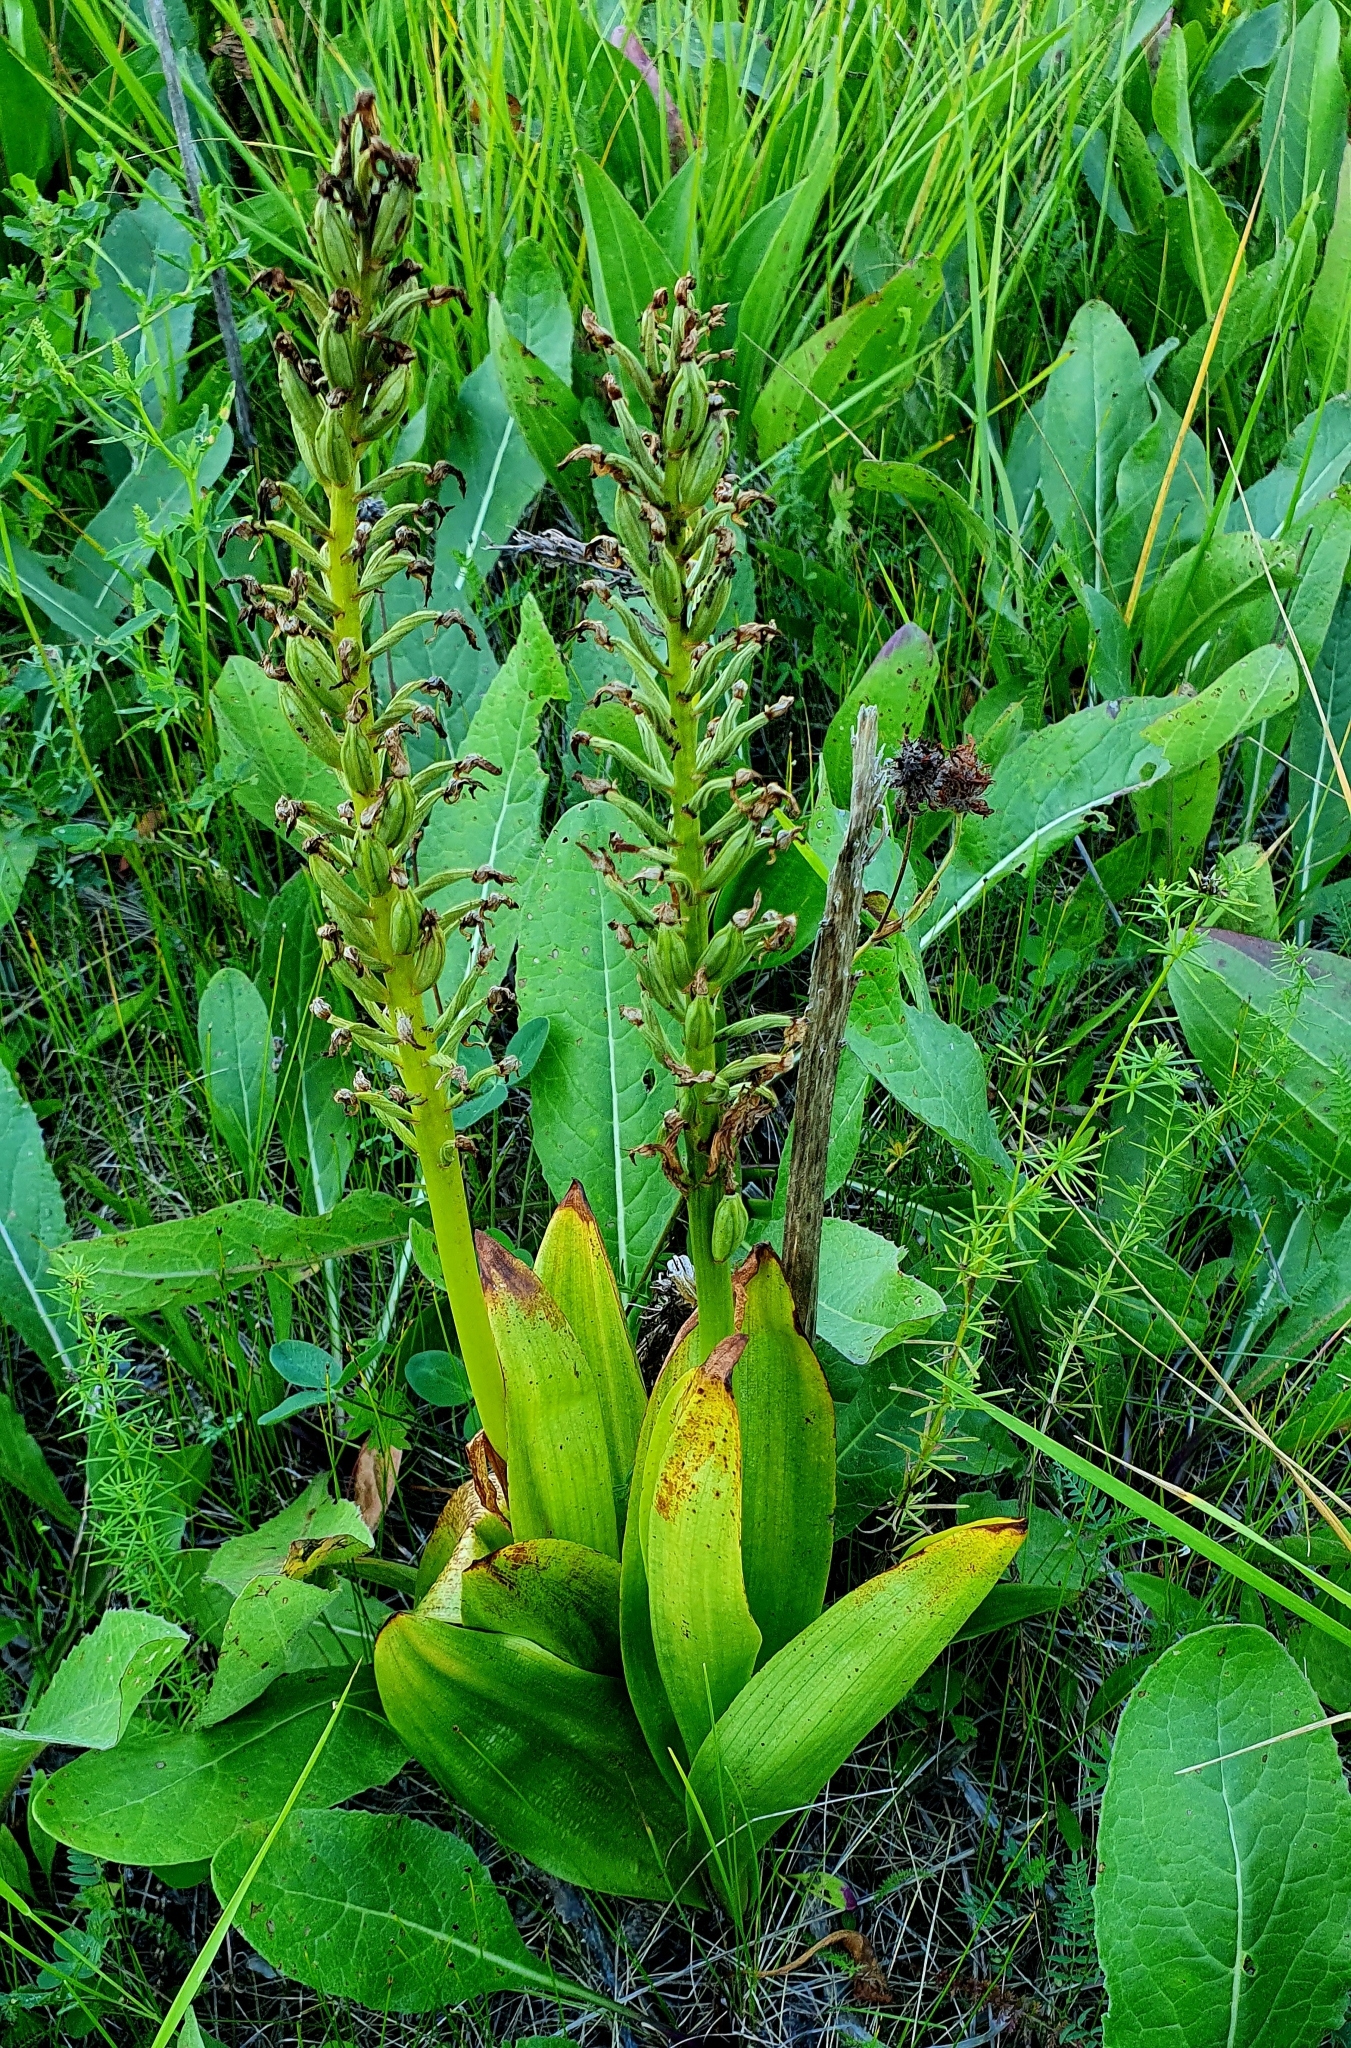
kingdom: Plantae
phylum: Tracheophyta
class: Liliopsida
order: Asparagales
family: Orchidaceae
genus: Orchis
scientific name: Orchis militaris
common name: Military orchid
